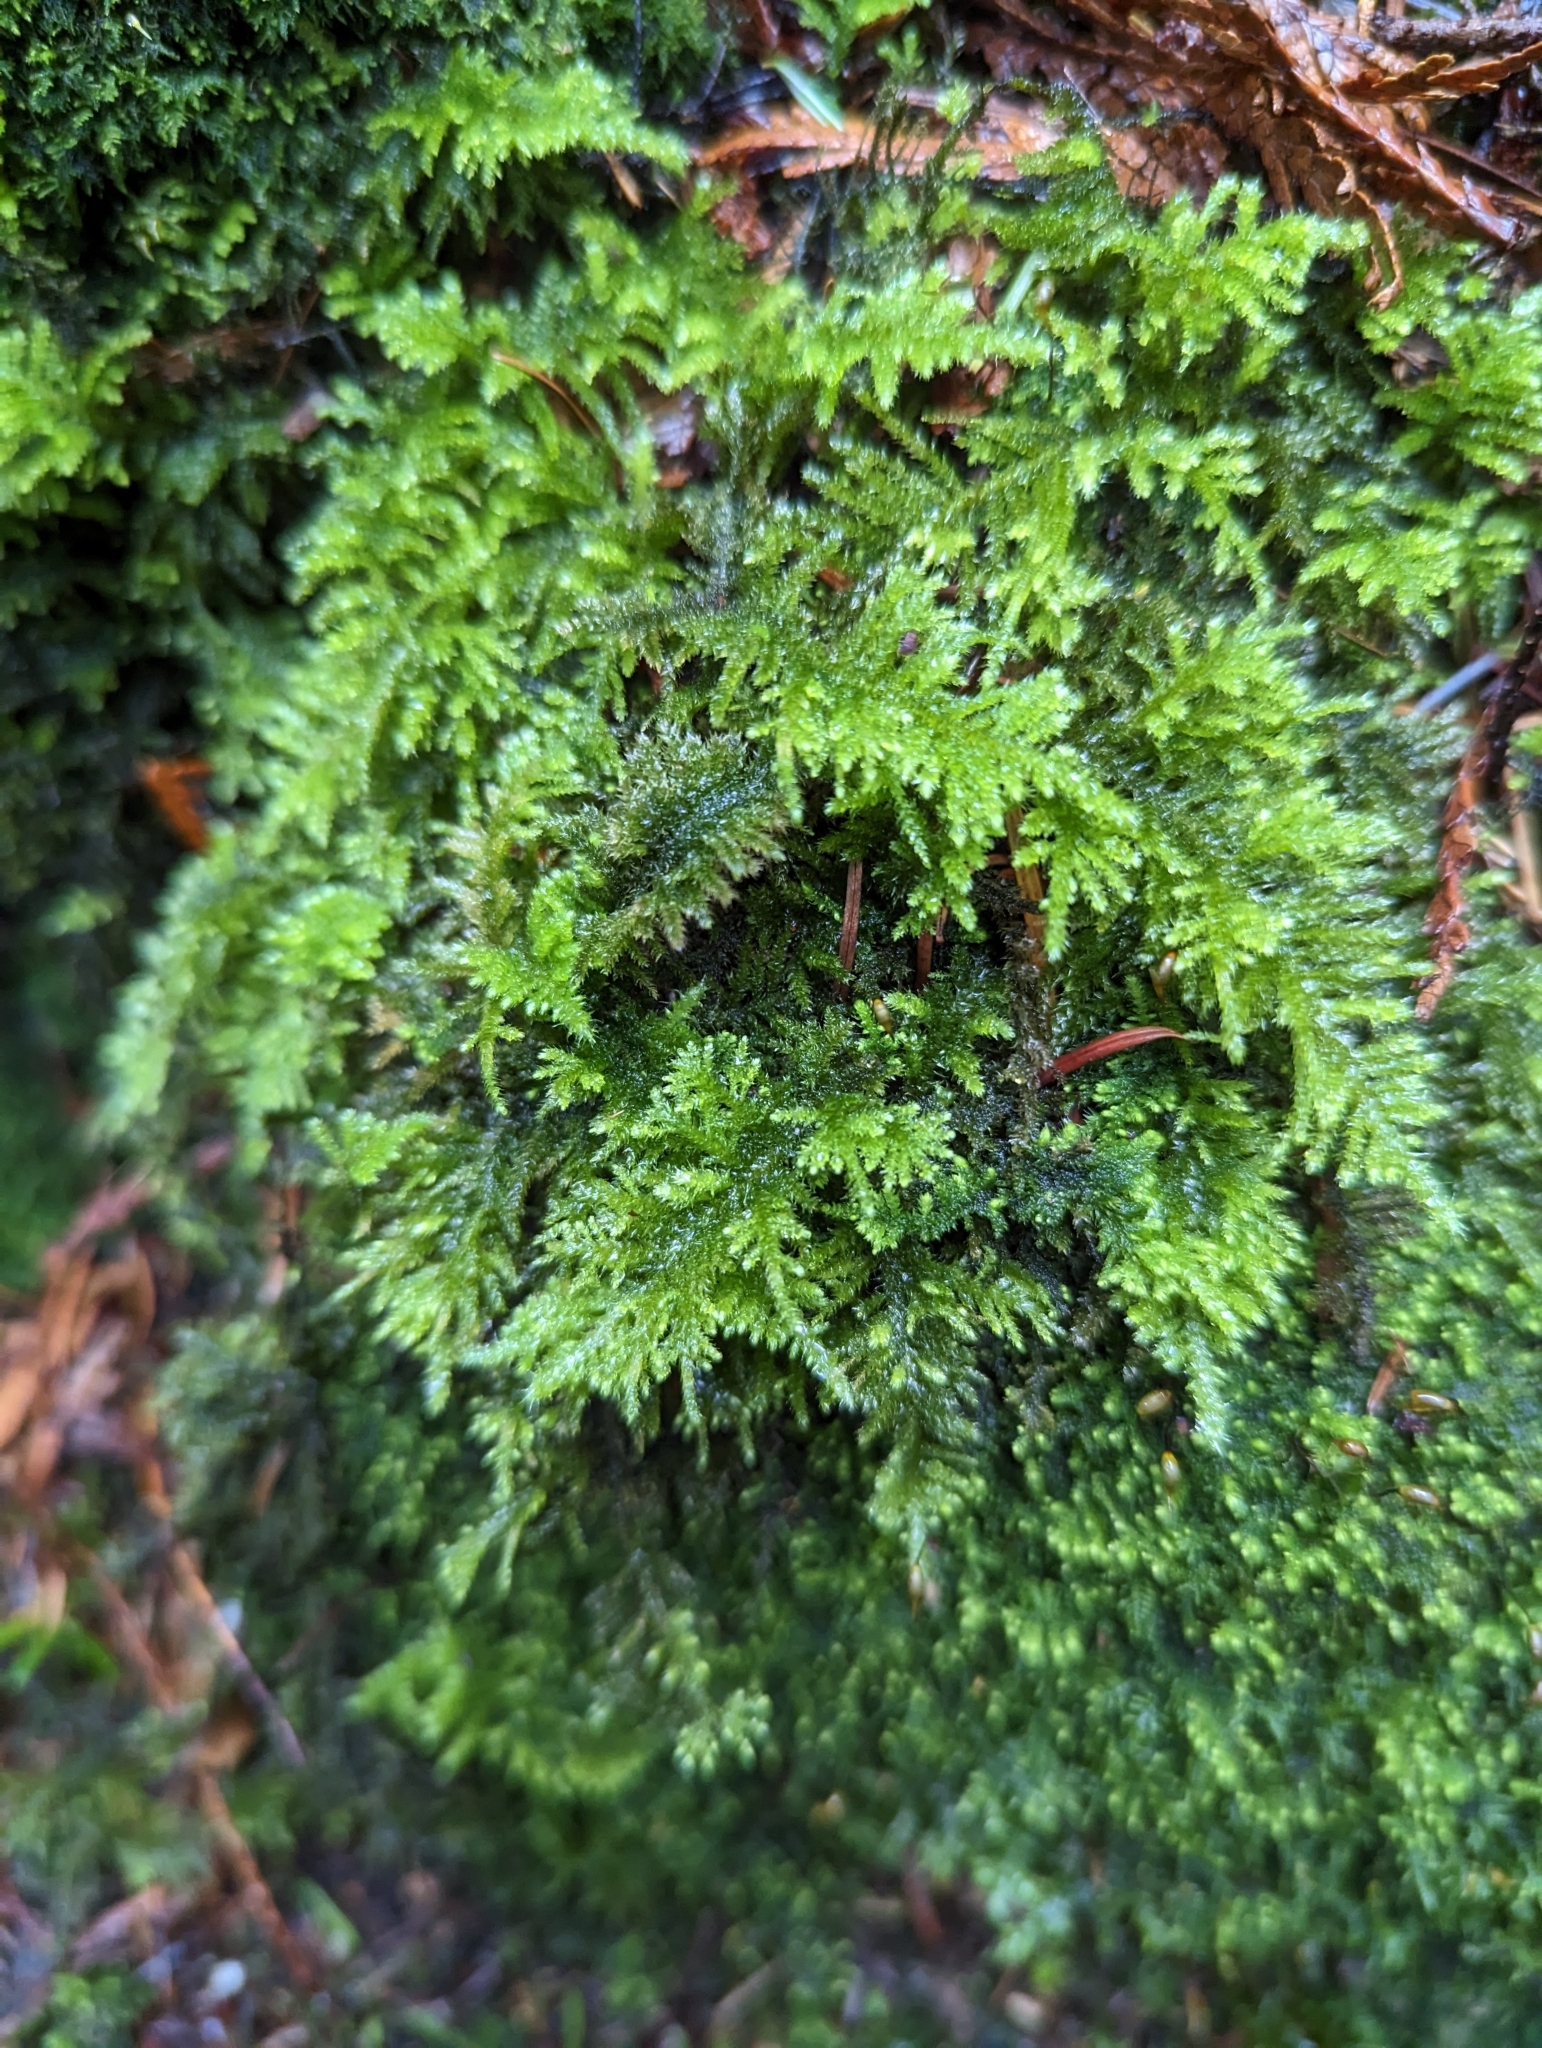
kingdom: Plantae
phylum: Bryophyta
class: Bryopsida
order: Hypnales
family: Brachytheciaceae
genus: Kindbergia
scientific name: Kindbergia oregana
